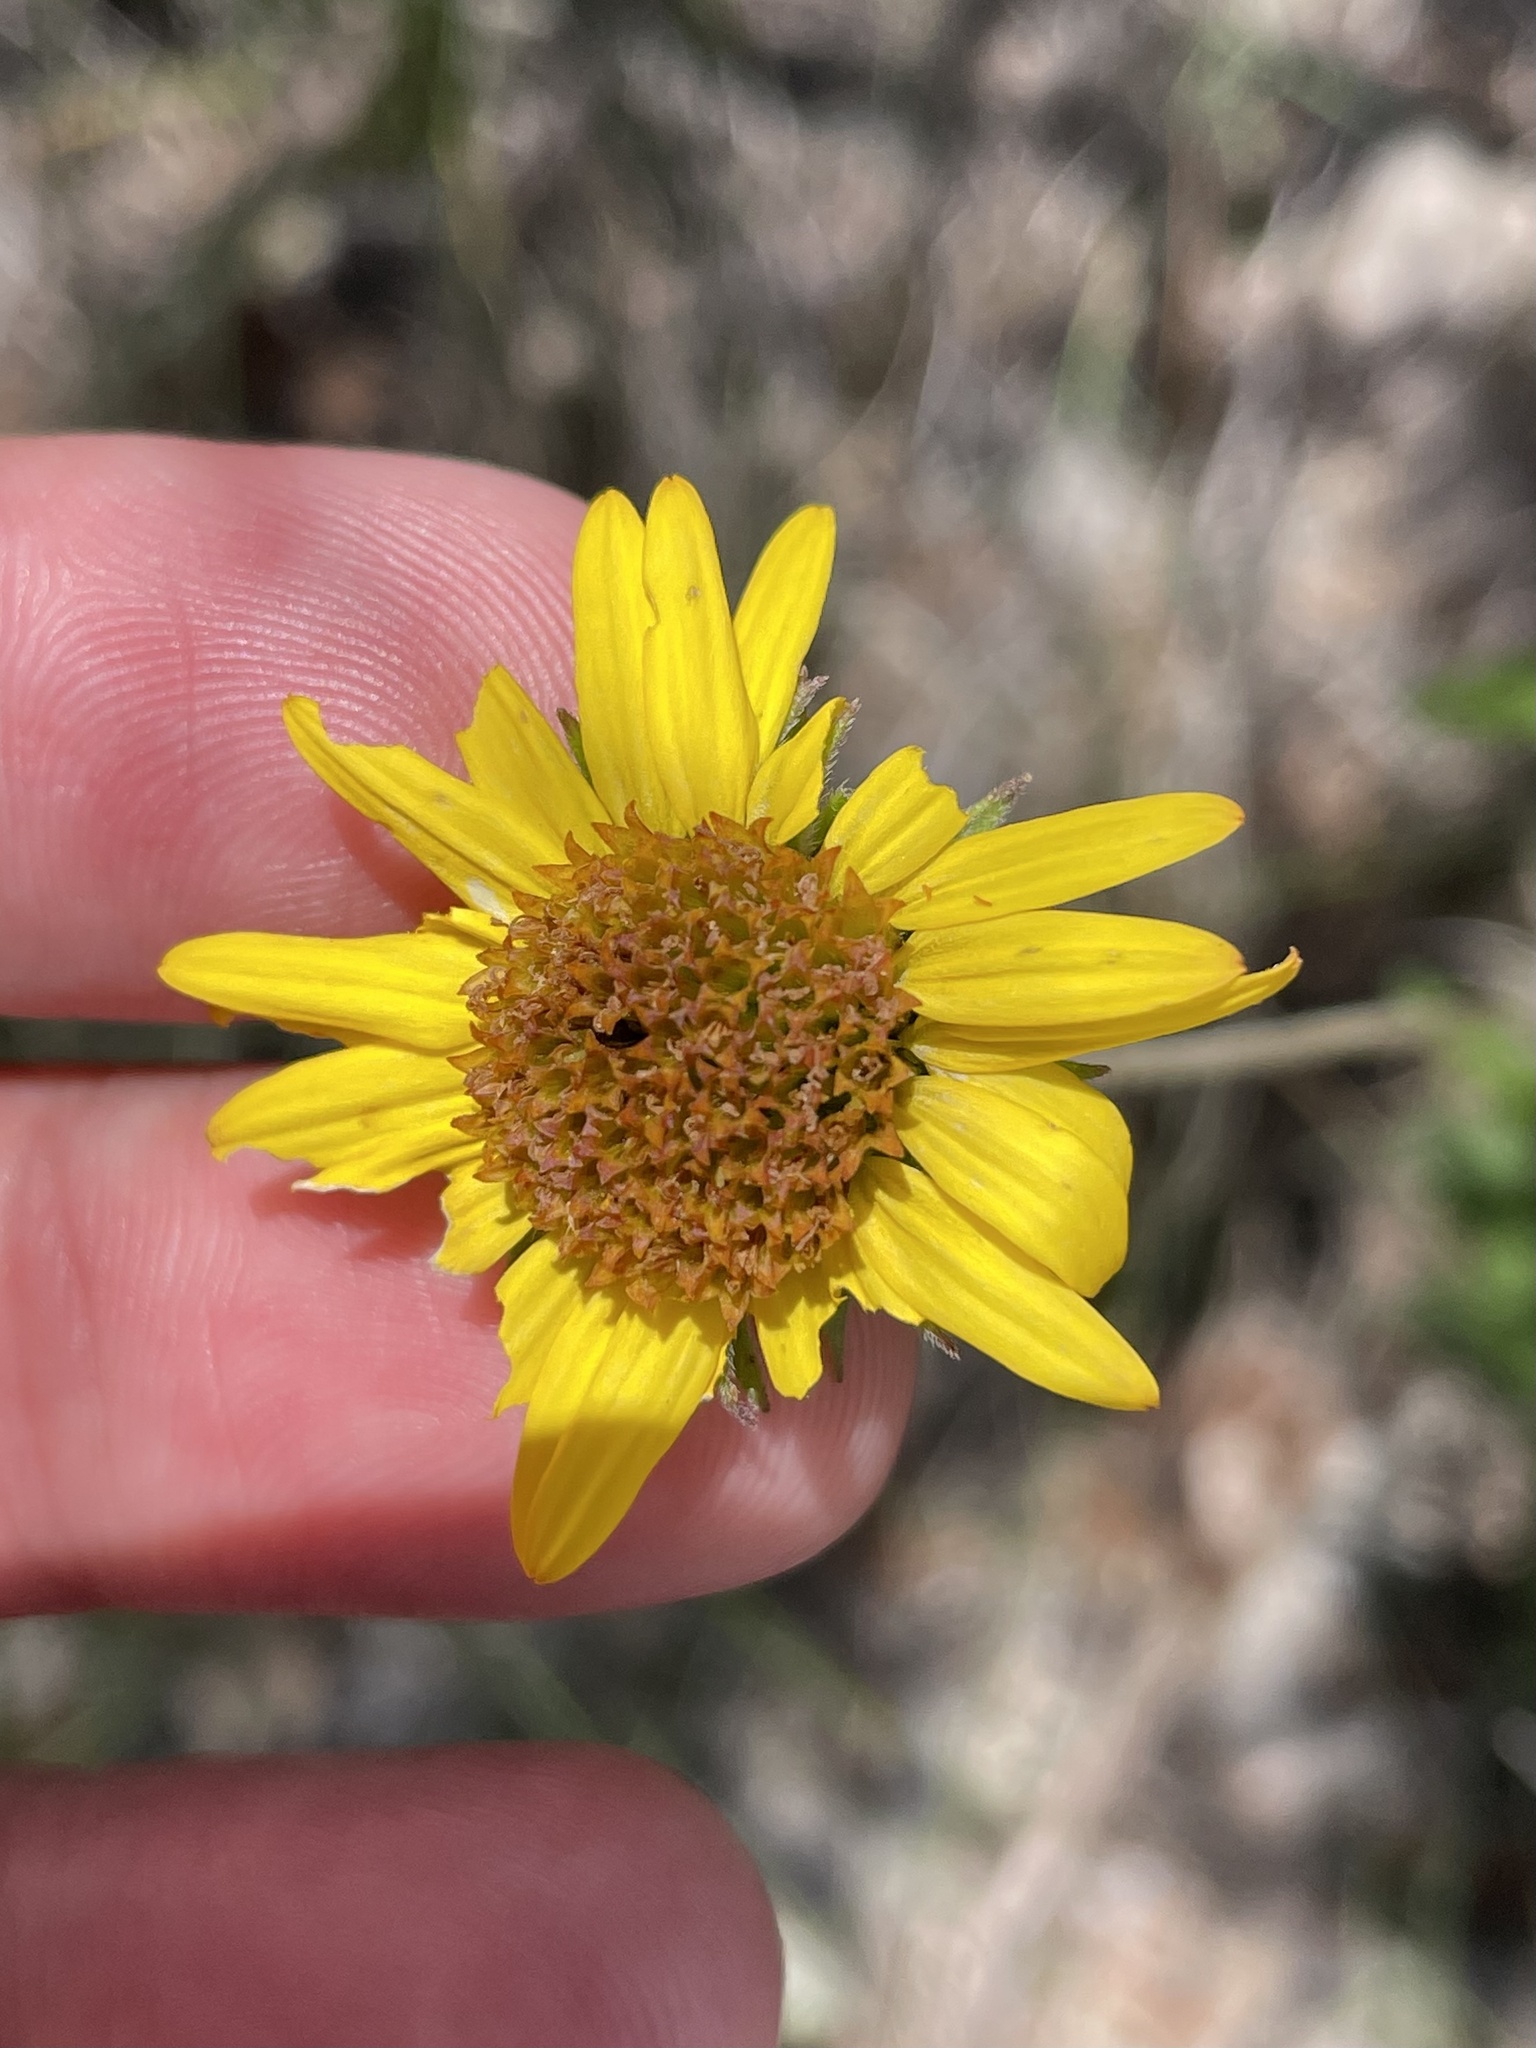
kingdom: Plantae
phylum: Tracheophyta
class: Magnoliopsida
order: Asterales
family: Asteraceae
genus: Simsia
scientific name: Simsia calva
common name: Awnless bush-sunflower
